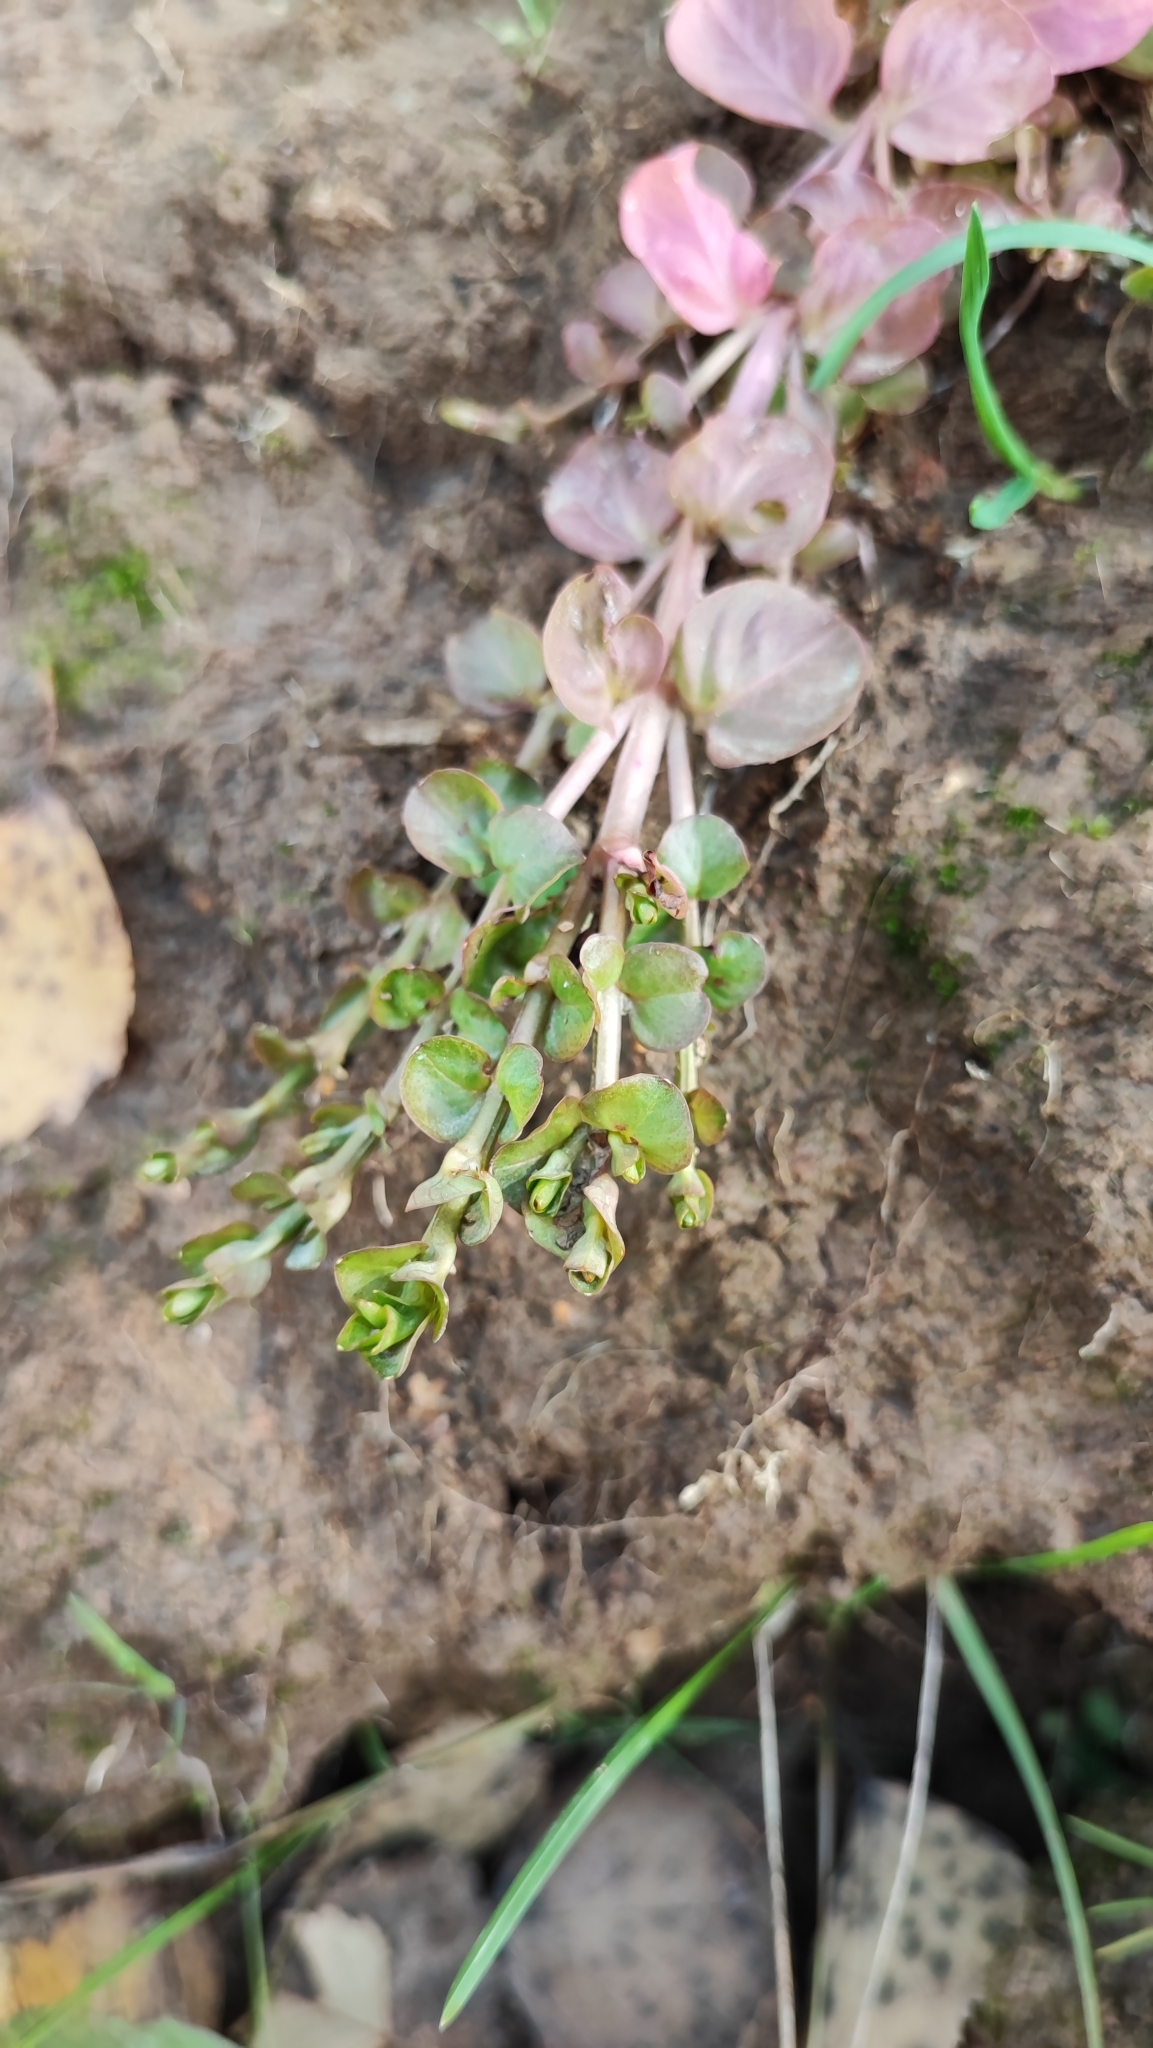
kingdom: Plantae
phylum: Tracheophyta
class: Magnoliopsida
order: Ericales
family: Primulaceae
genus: Lysimachia
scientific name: Lysimachia nummularia
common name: Moneywort
